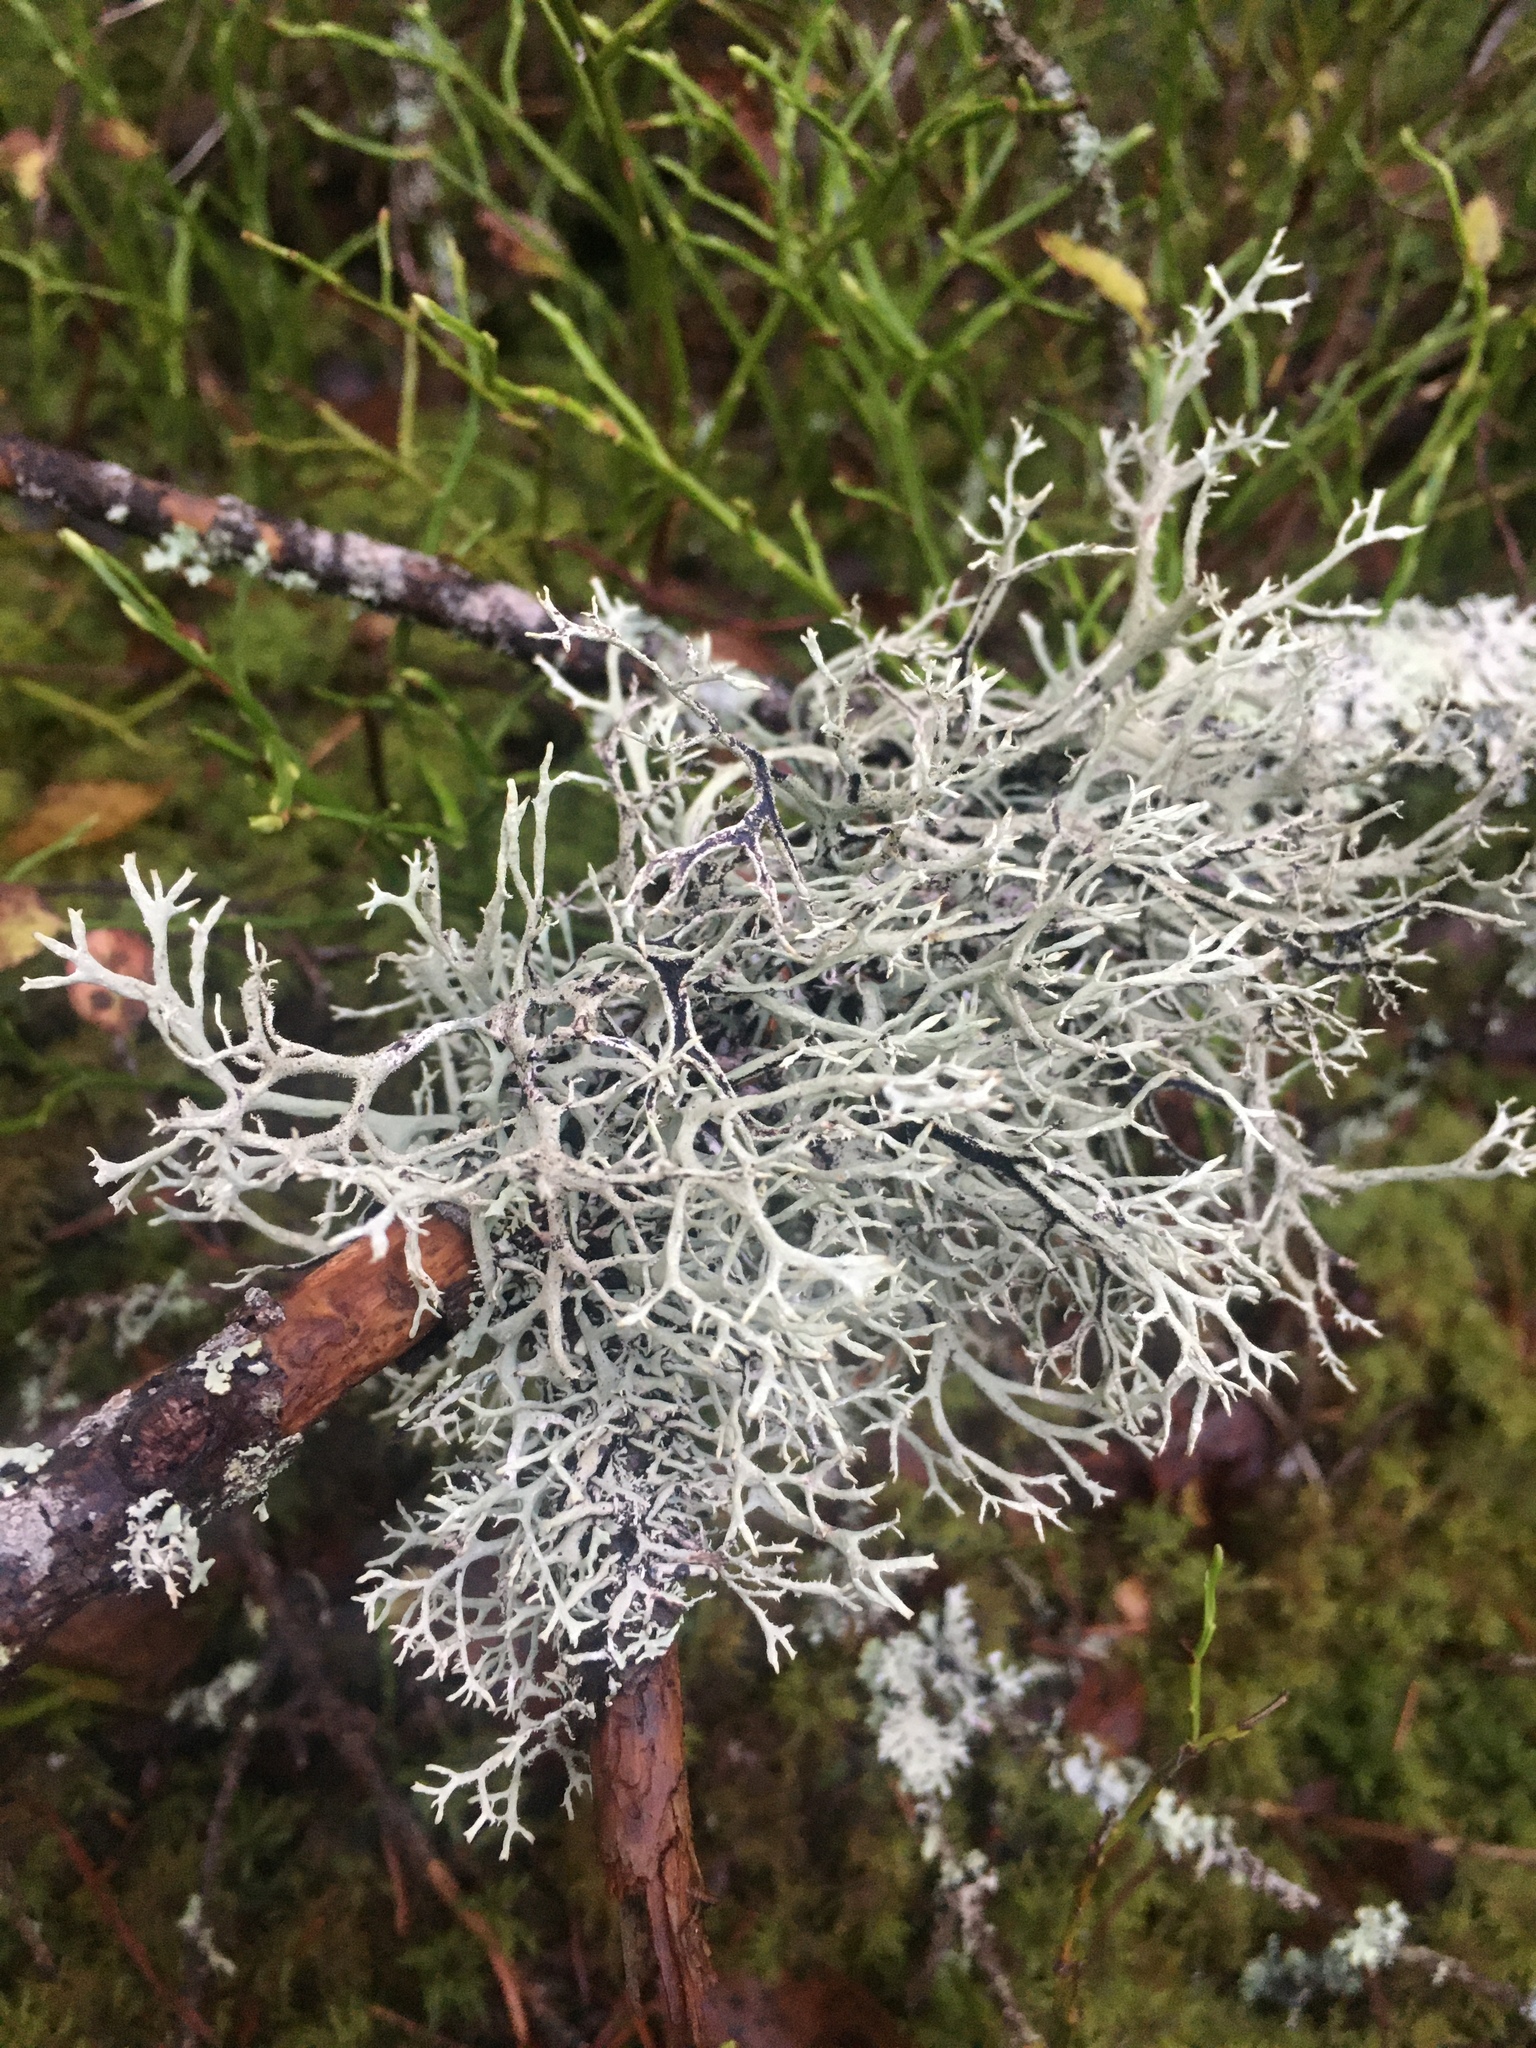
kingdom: Fungi
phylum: Ascomycota
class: Lecanoromycetes
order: Lecanorales
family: Parmeliaceae
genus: Pseudevernia
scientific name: Pseudevernia furfuracea
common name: Tree moss
